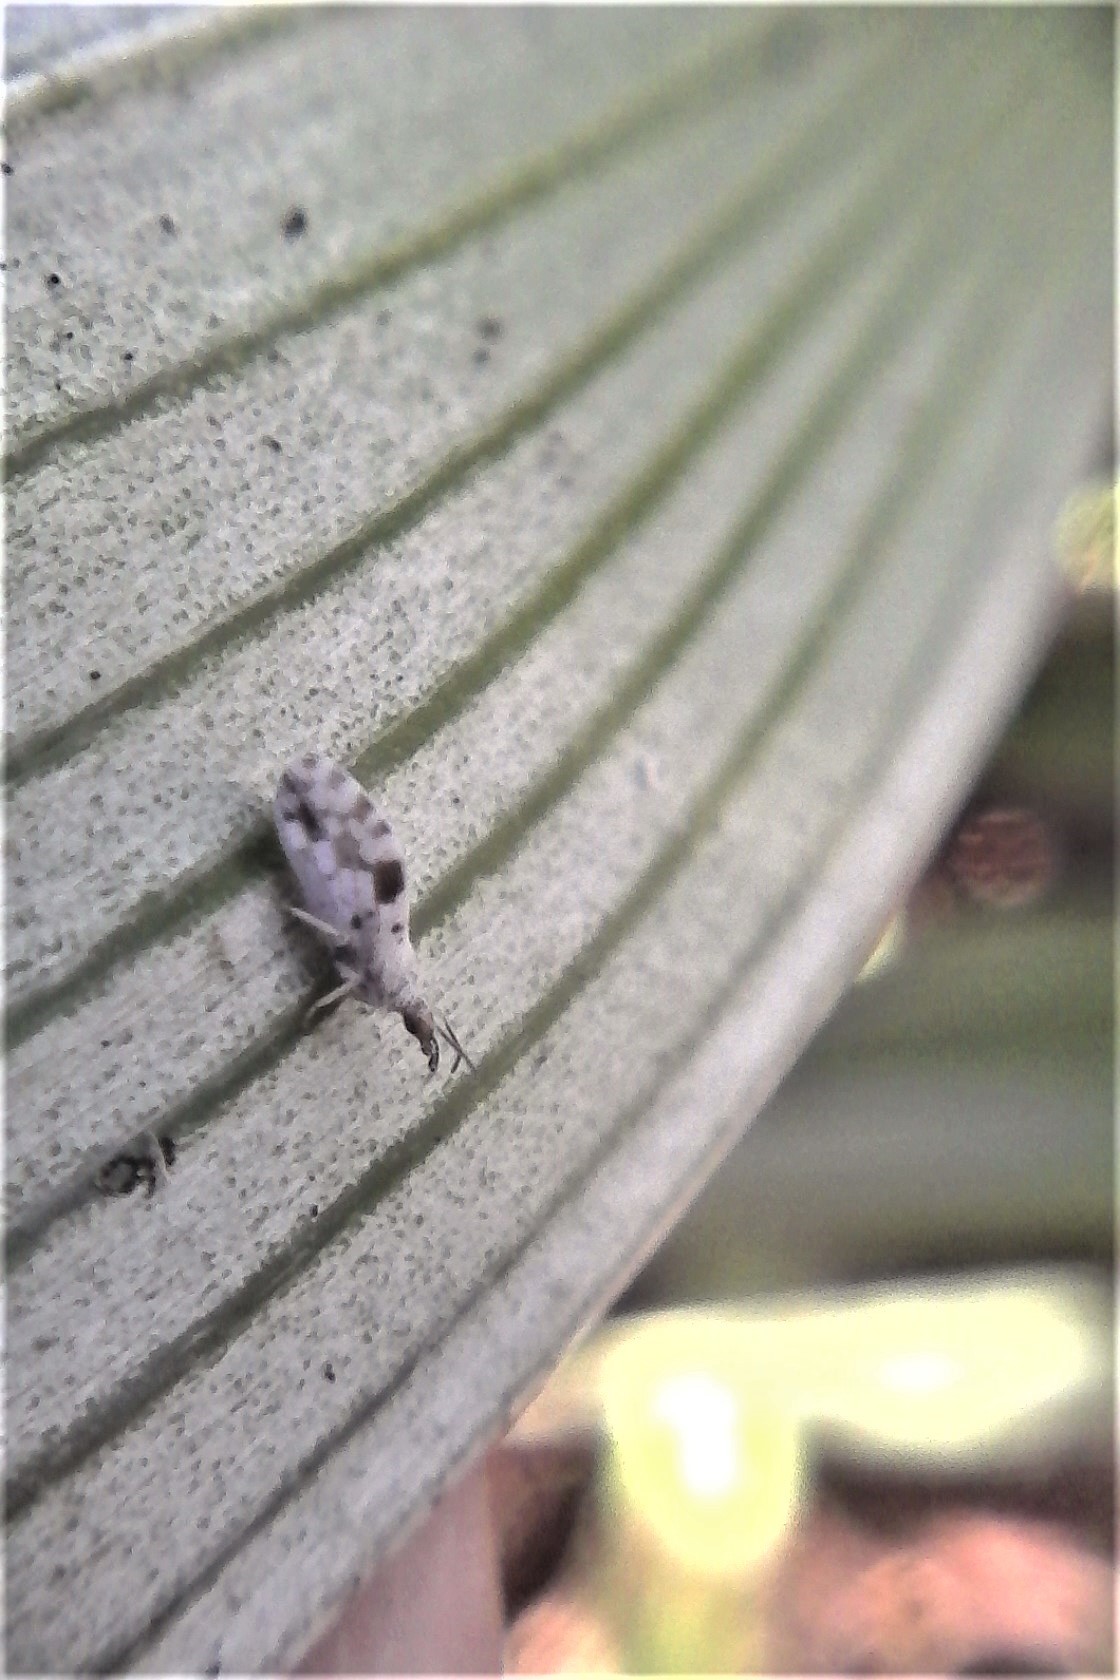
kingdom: Animalia
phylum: Arthropoda
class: Insecta
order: Neuroptera
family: Coniopterygidae
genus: Heteroconis
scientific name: Heteroconis ornata
